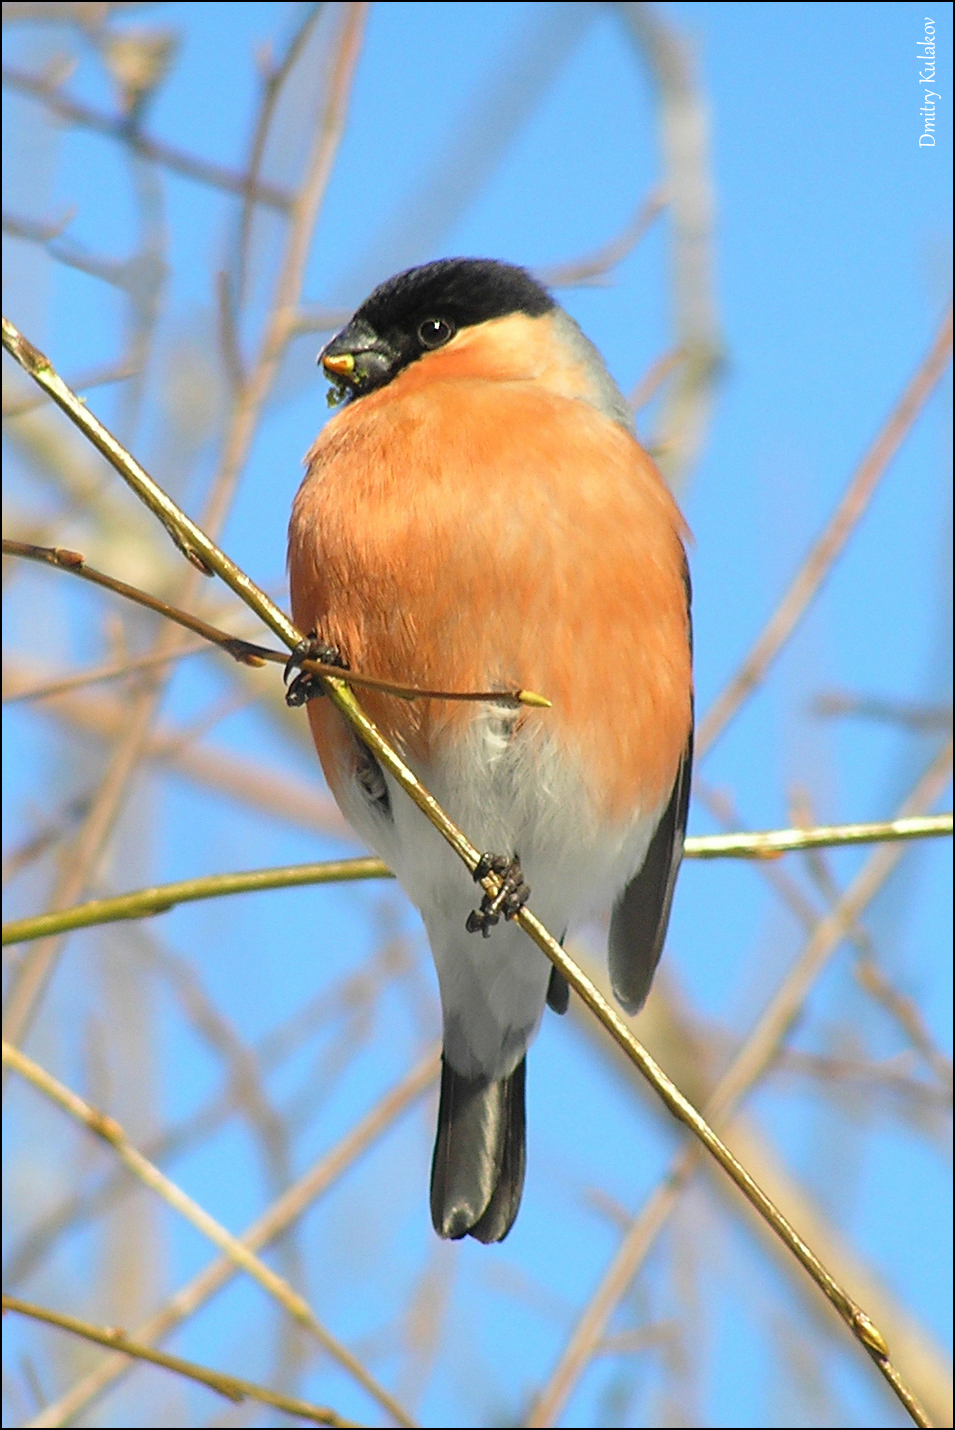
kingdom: Animalia
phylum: Chordata
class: Aves
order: Passeriformes
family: Fringillidae
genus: Pyrrhula
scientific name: Pyrrhula pyrrhula
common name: Eurasian bullfinch
